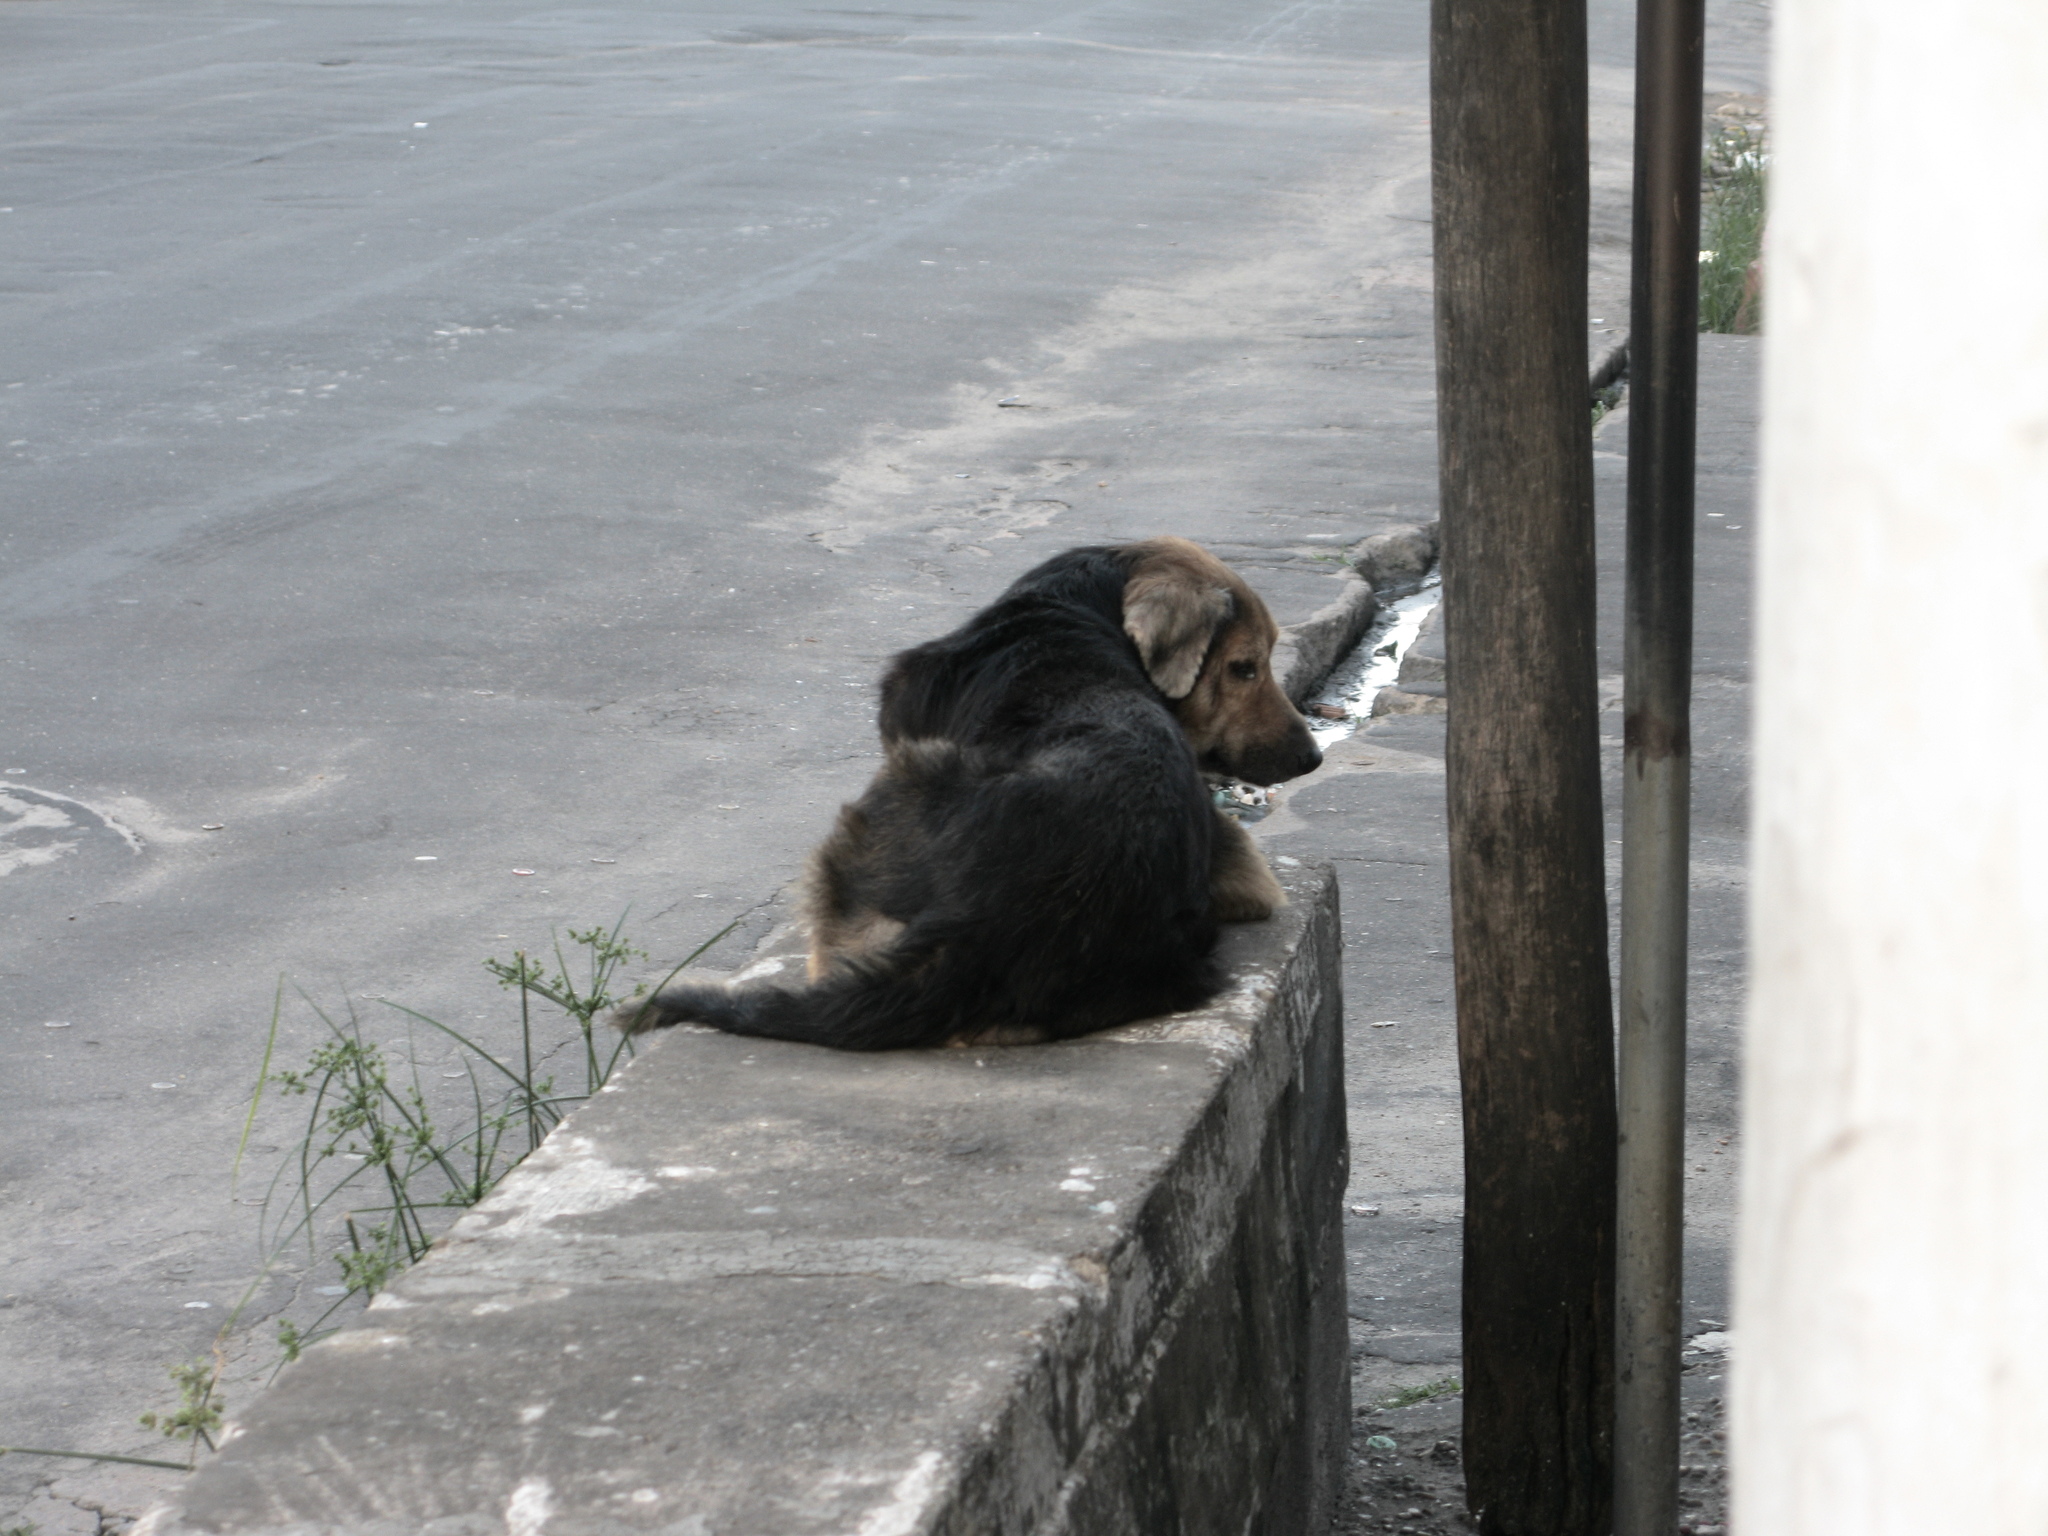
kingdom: Animalia
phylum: Chordata
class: Mammalia
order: Carnivora
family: Canidae
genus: Canis
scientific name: Canis lupus
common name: Gray wolf
